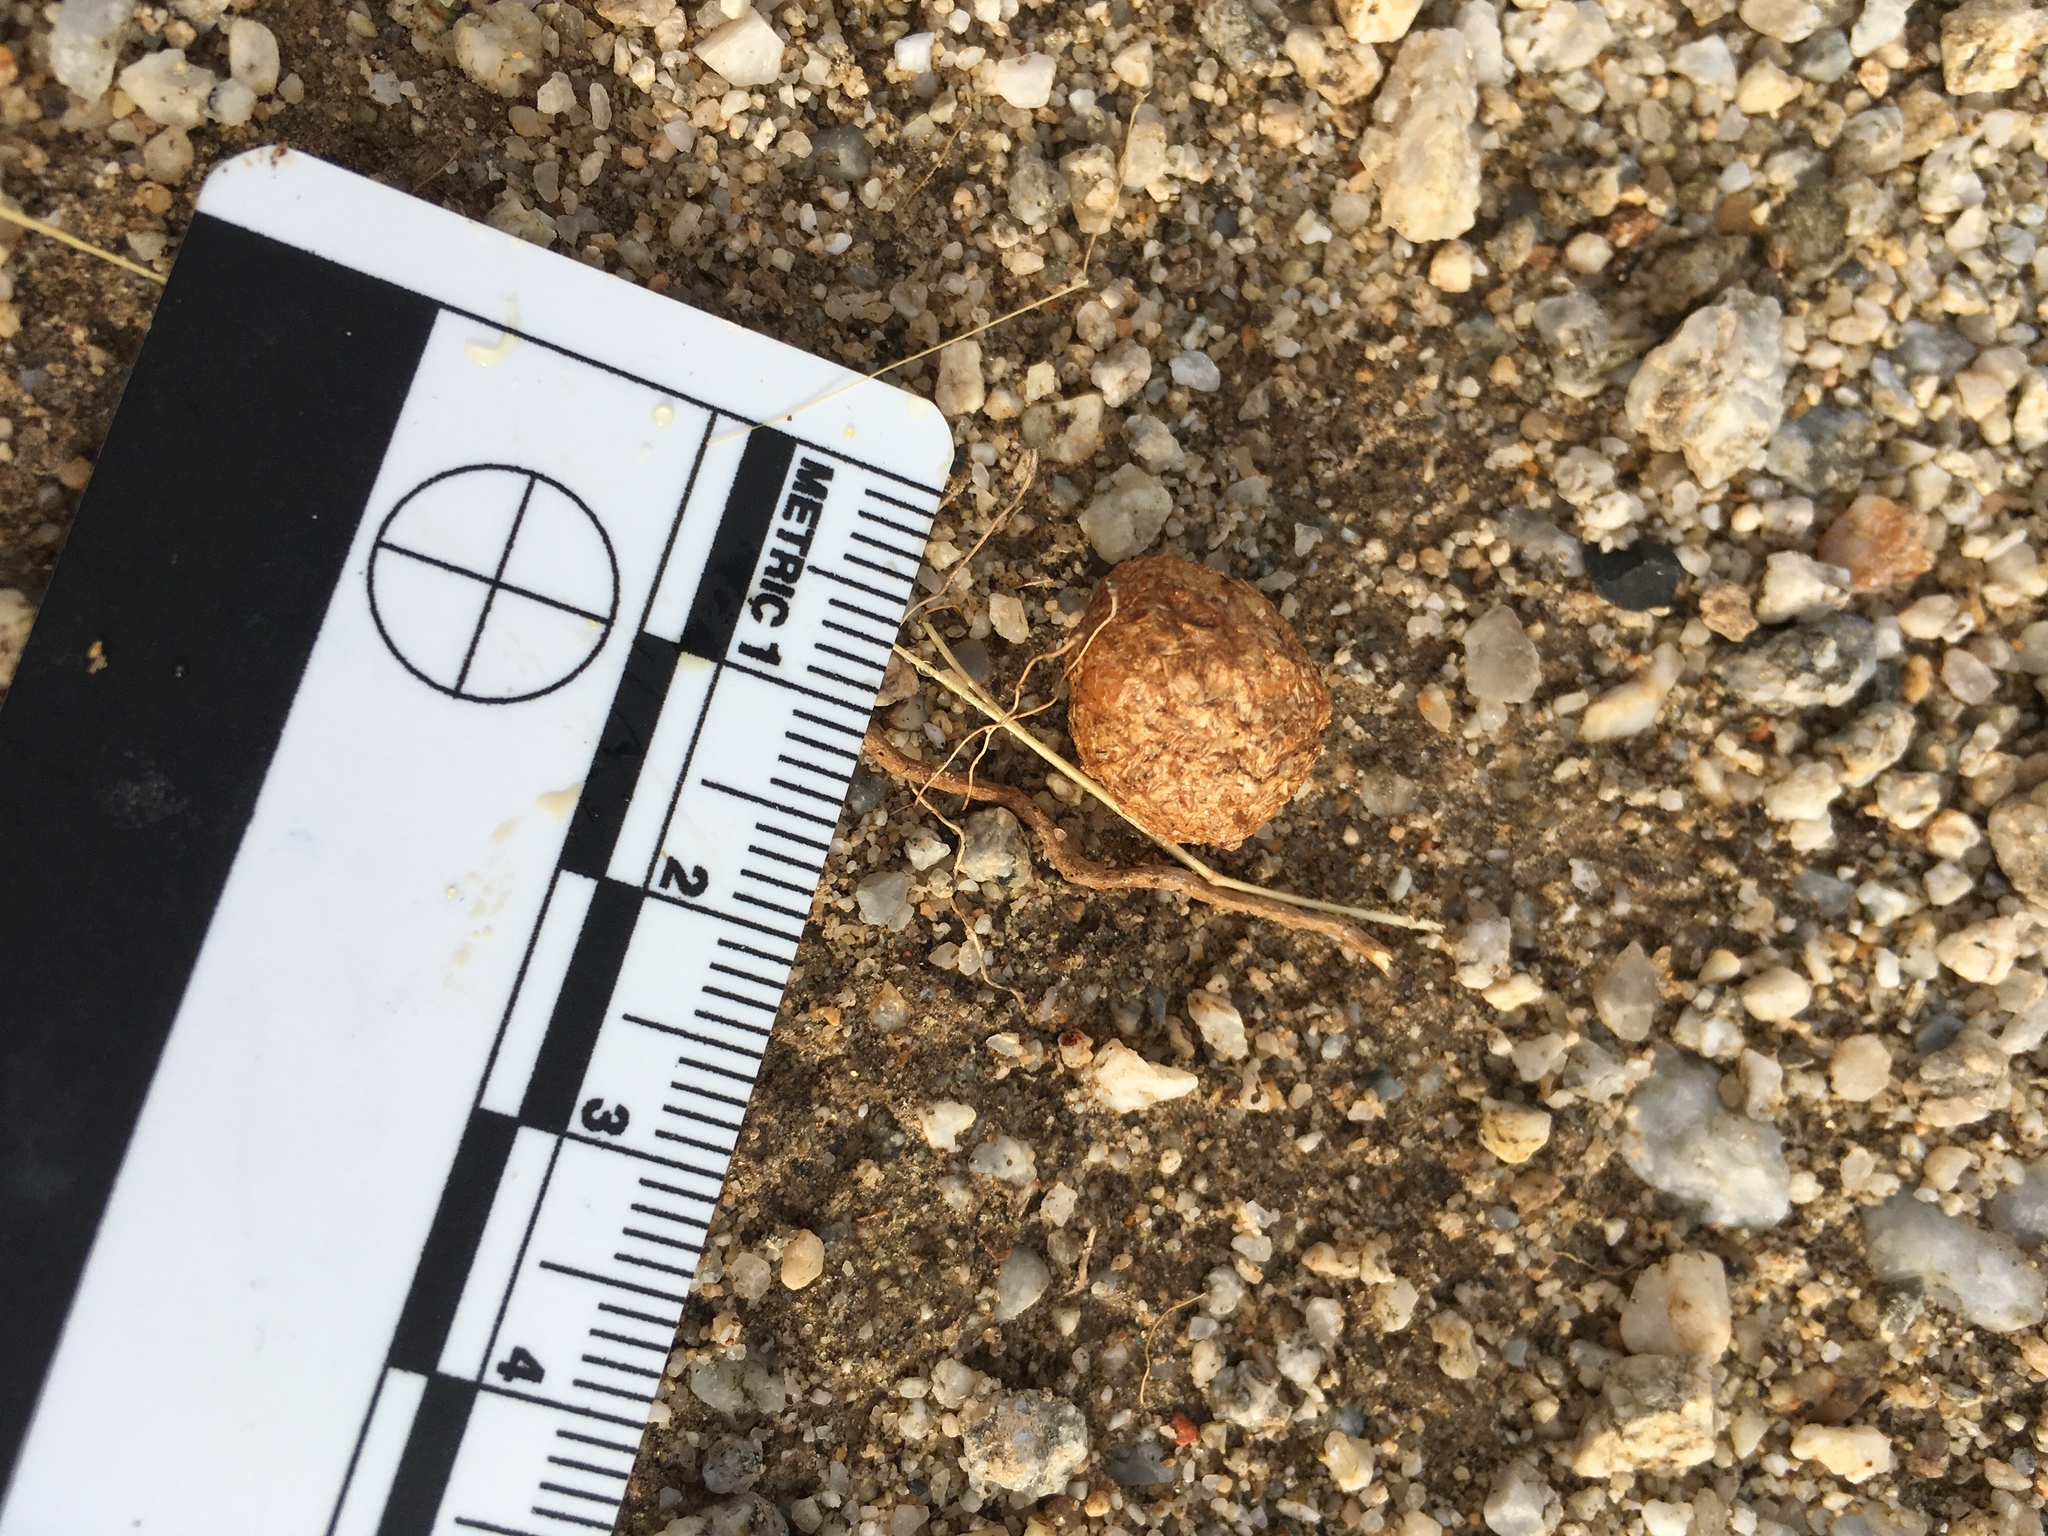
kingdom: Animalia
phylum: Chordata
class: Mammalia
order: Lagomorpha
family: Leporidae
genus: Lepus
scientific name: Lepus californicus
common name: Black-tailed jackrabbit
